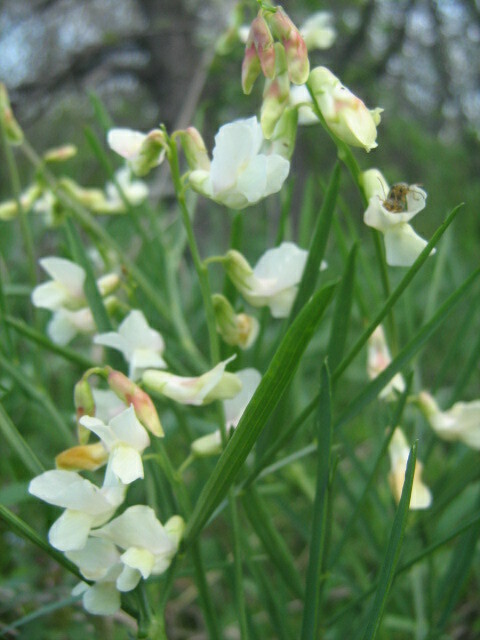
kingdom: Plantae
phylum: Tracheophyta
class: Magnoliopsida
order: Fabales
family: Fabaceae
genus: Lathyrus
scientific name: Lathyrus pannonicus
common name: Pea
